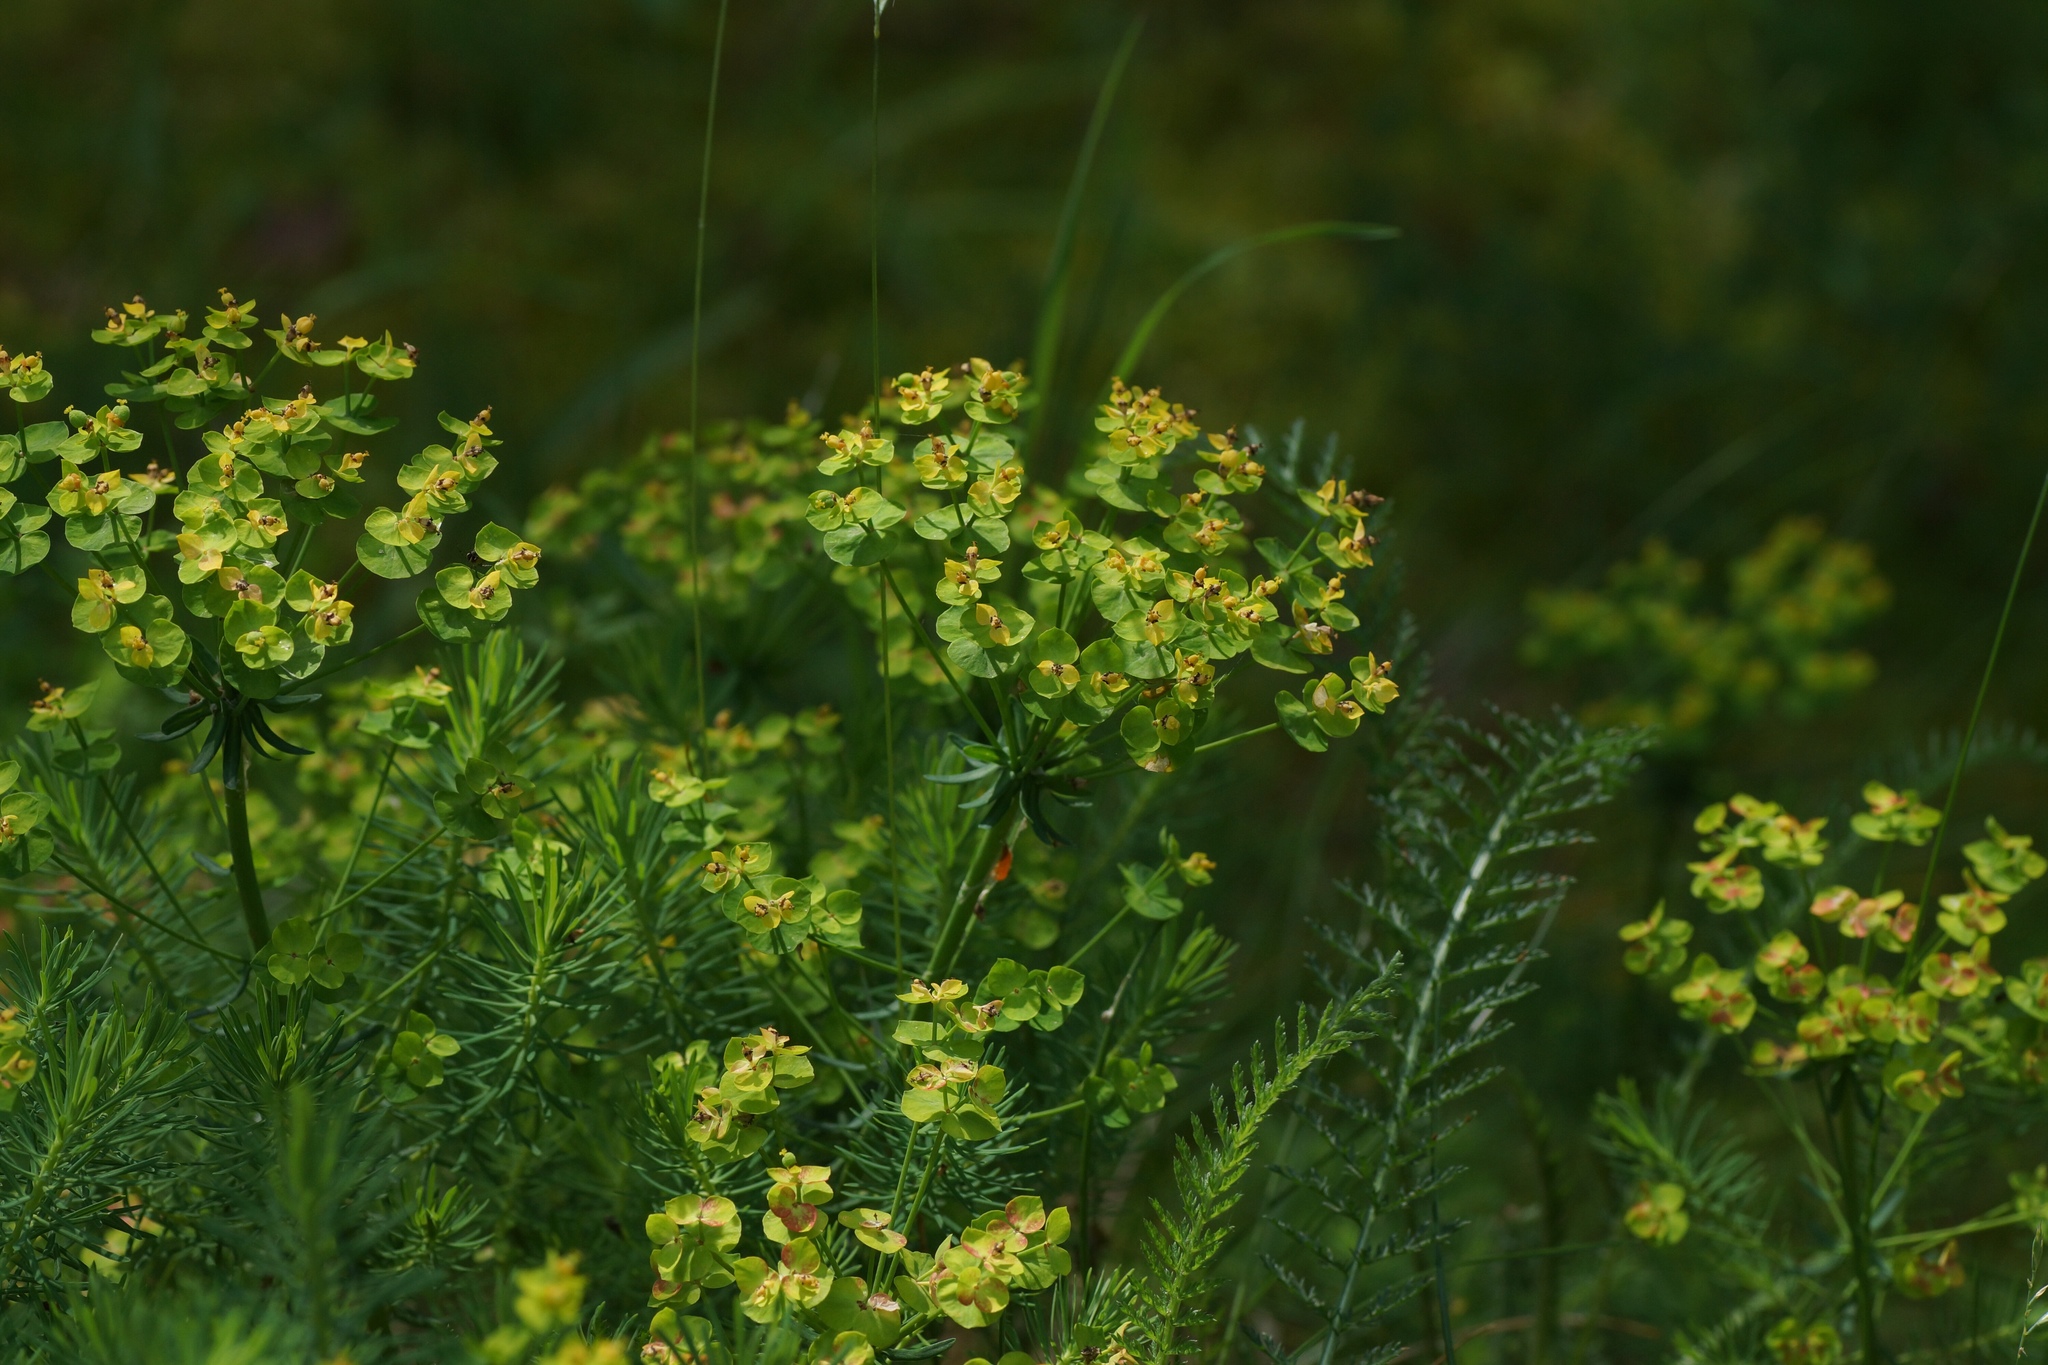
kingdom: Plantae
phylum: Tracheophyta
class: Magnoliopsida
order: Malpighiales
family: Euphorbiaceae
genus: Euphorbia
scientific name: Euphorbia cyparissias
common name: Cypress spurge
